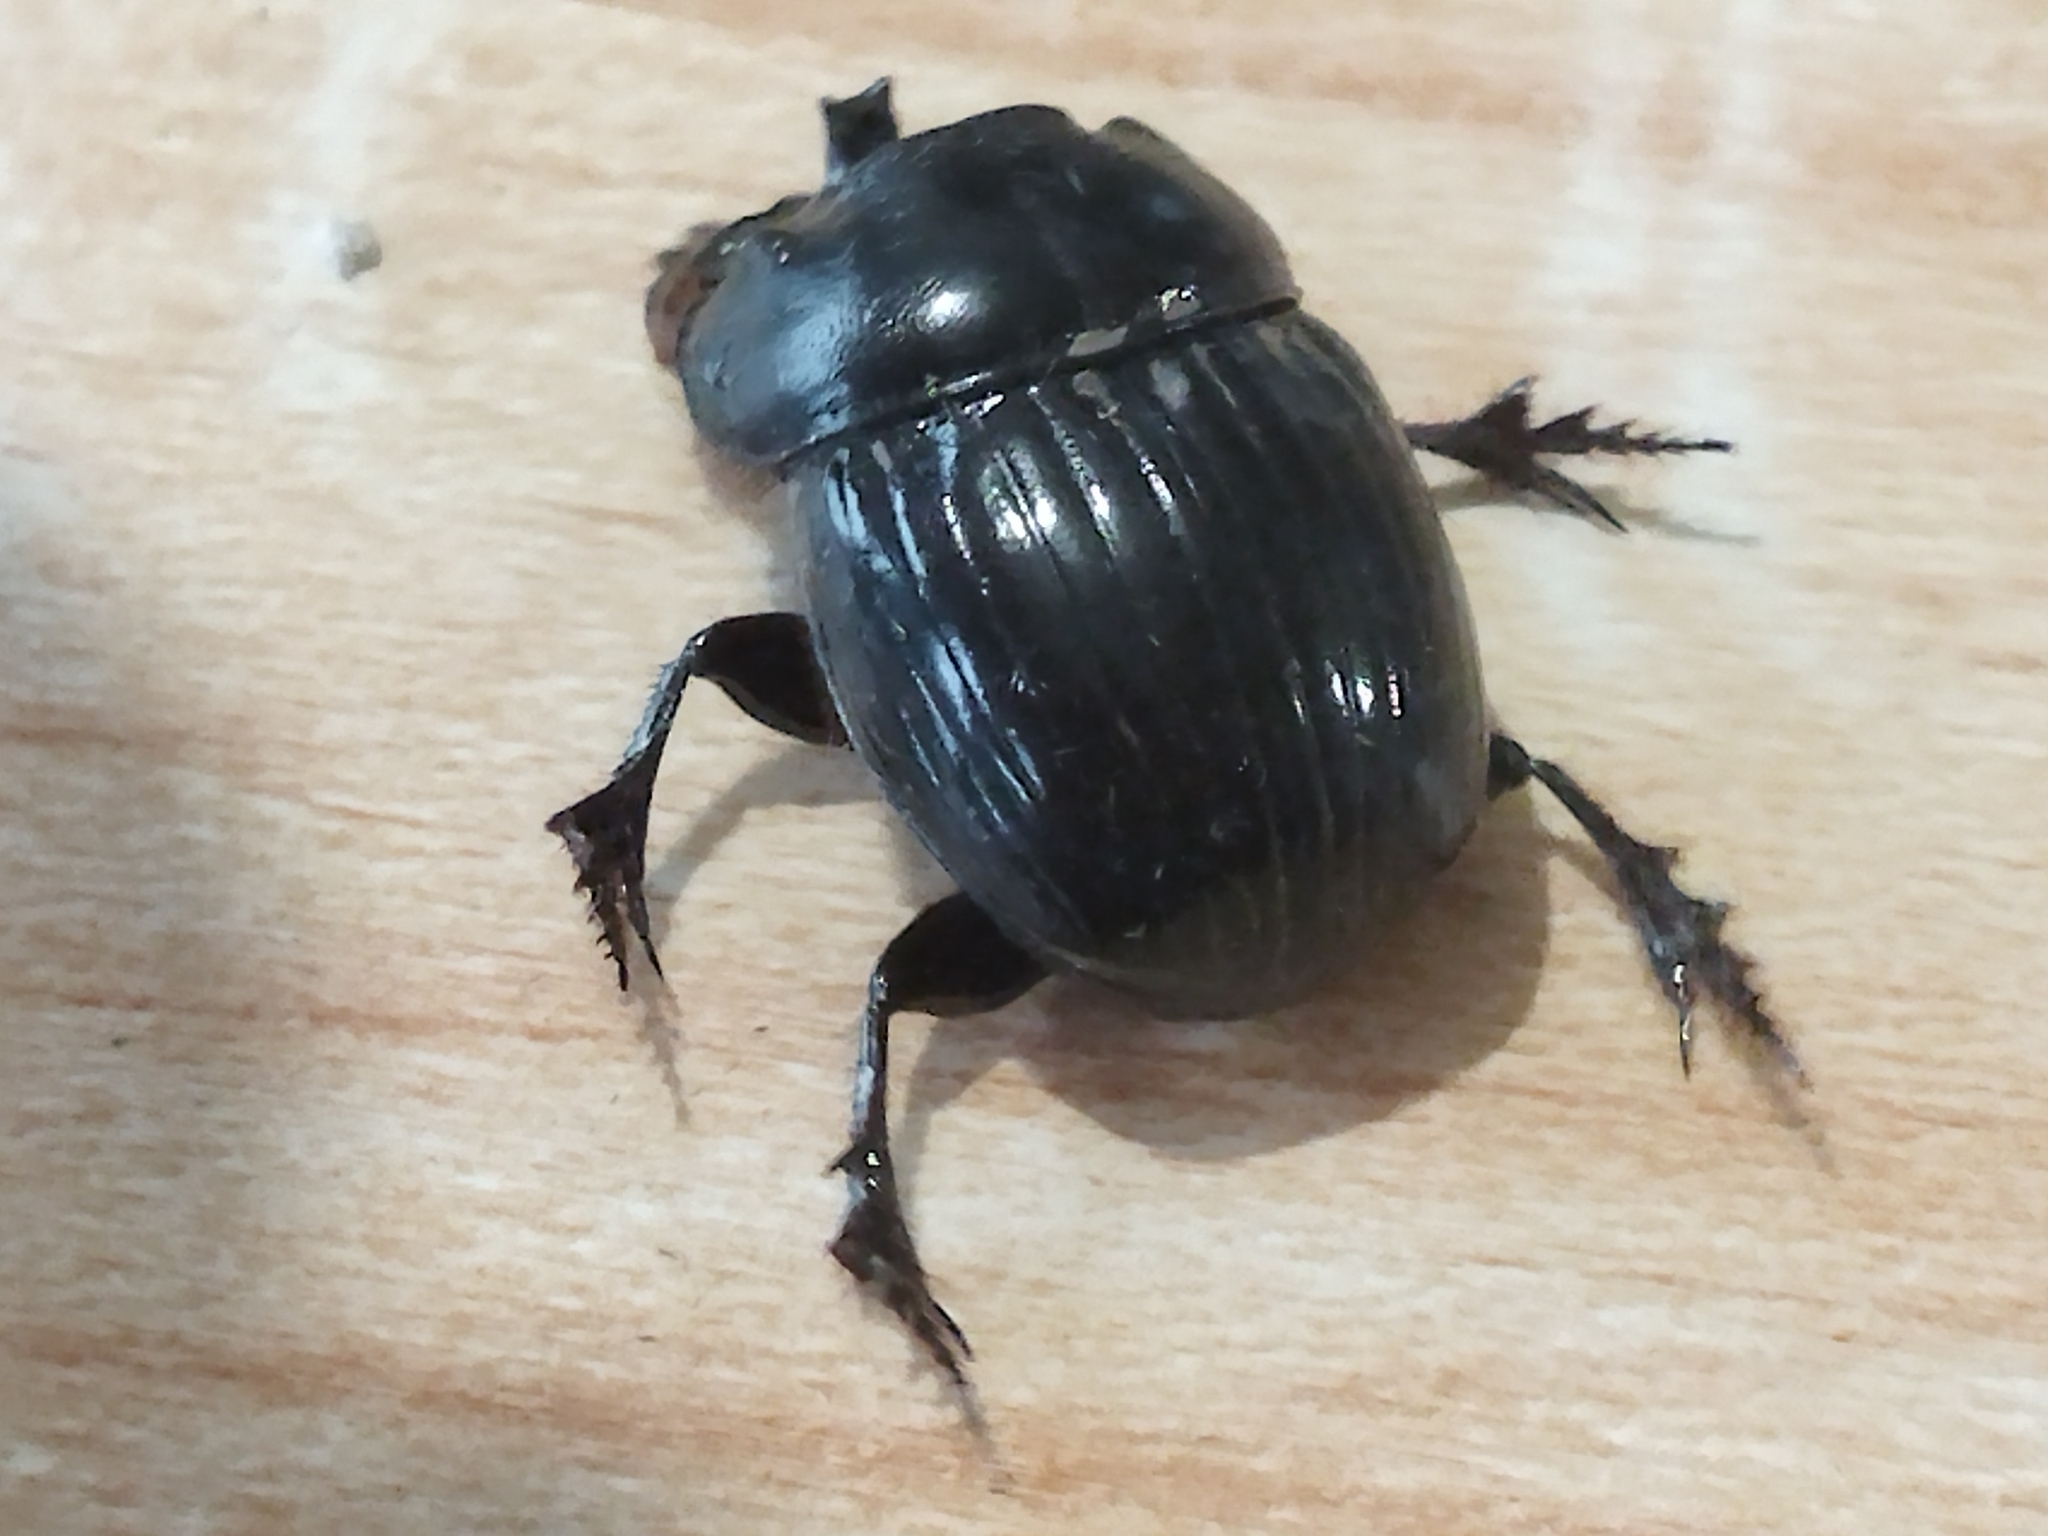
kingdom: Animalia
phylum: Arthropoda
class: Insecta
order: Coleoptera
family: Scarabaeidae
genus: Copris
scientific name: Copris lunaris
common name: Horned dung beetle
